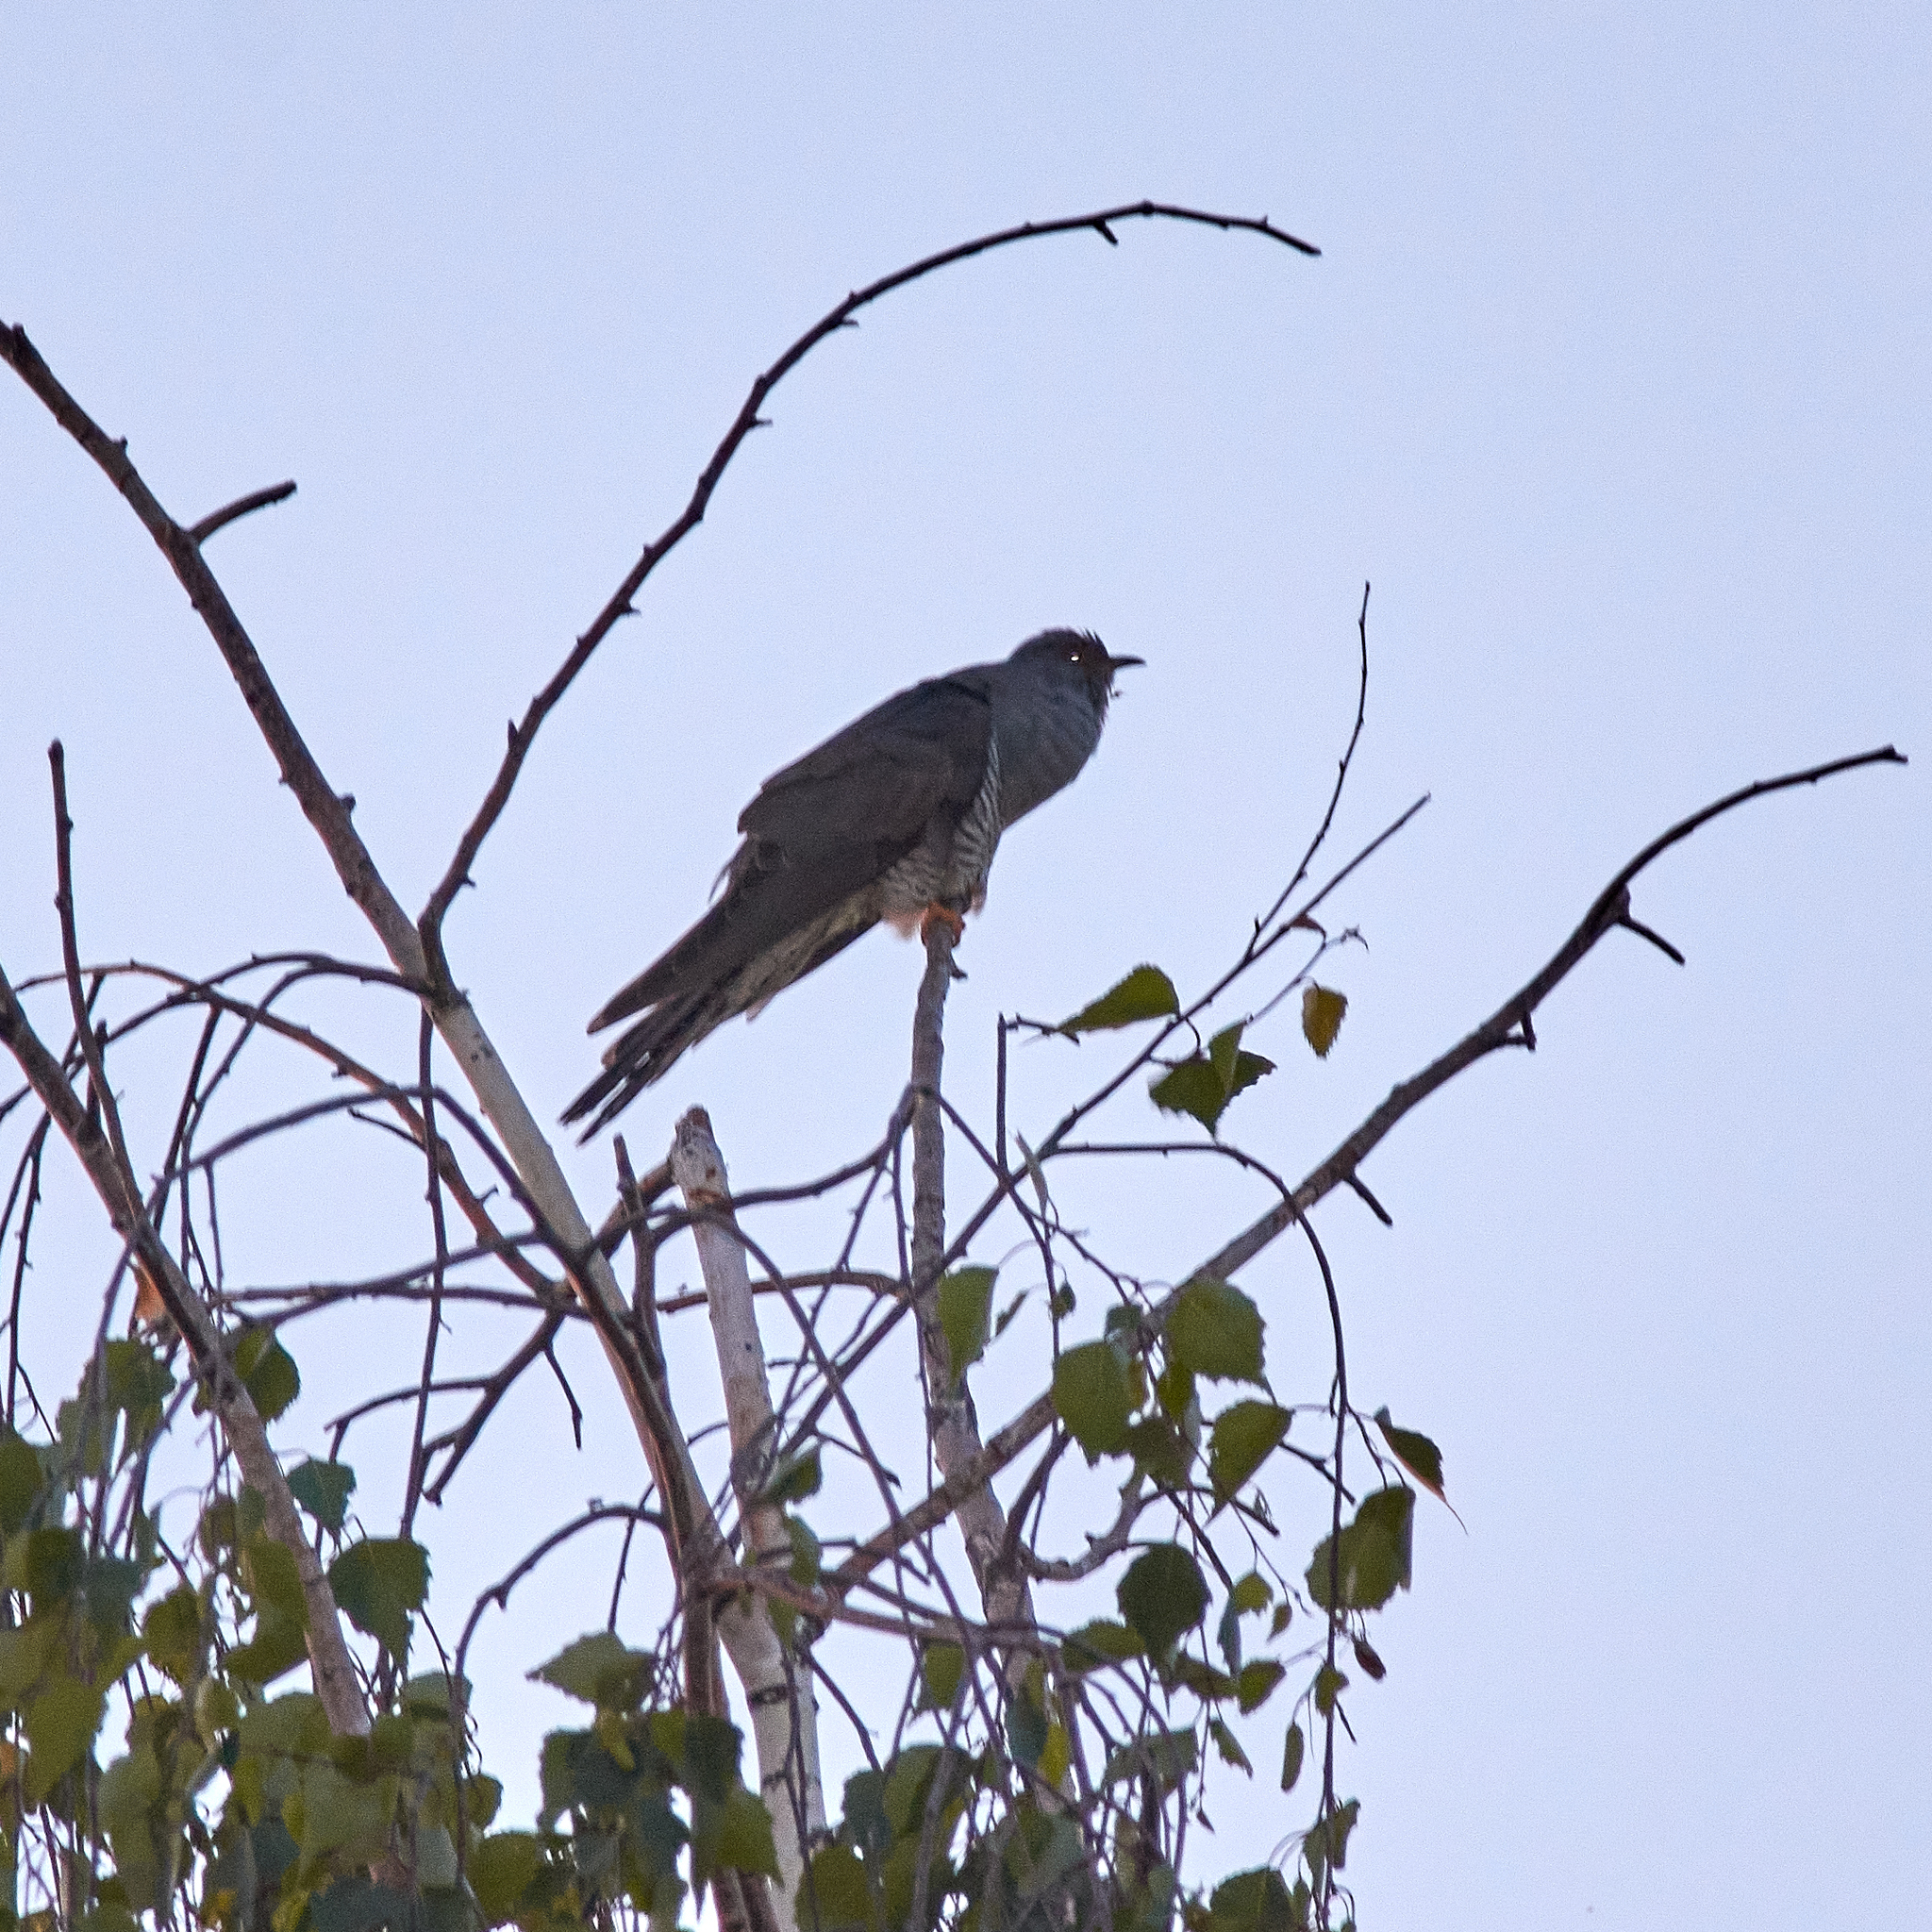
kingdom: Animalia
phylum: Chordata
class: Aves
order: Cuculiformes
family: Cuculidae
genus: Cuculus
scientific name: Cuculus canorus
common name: Common cuckoo
